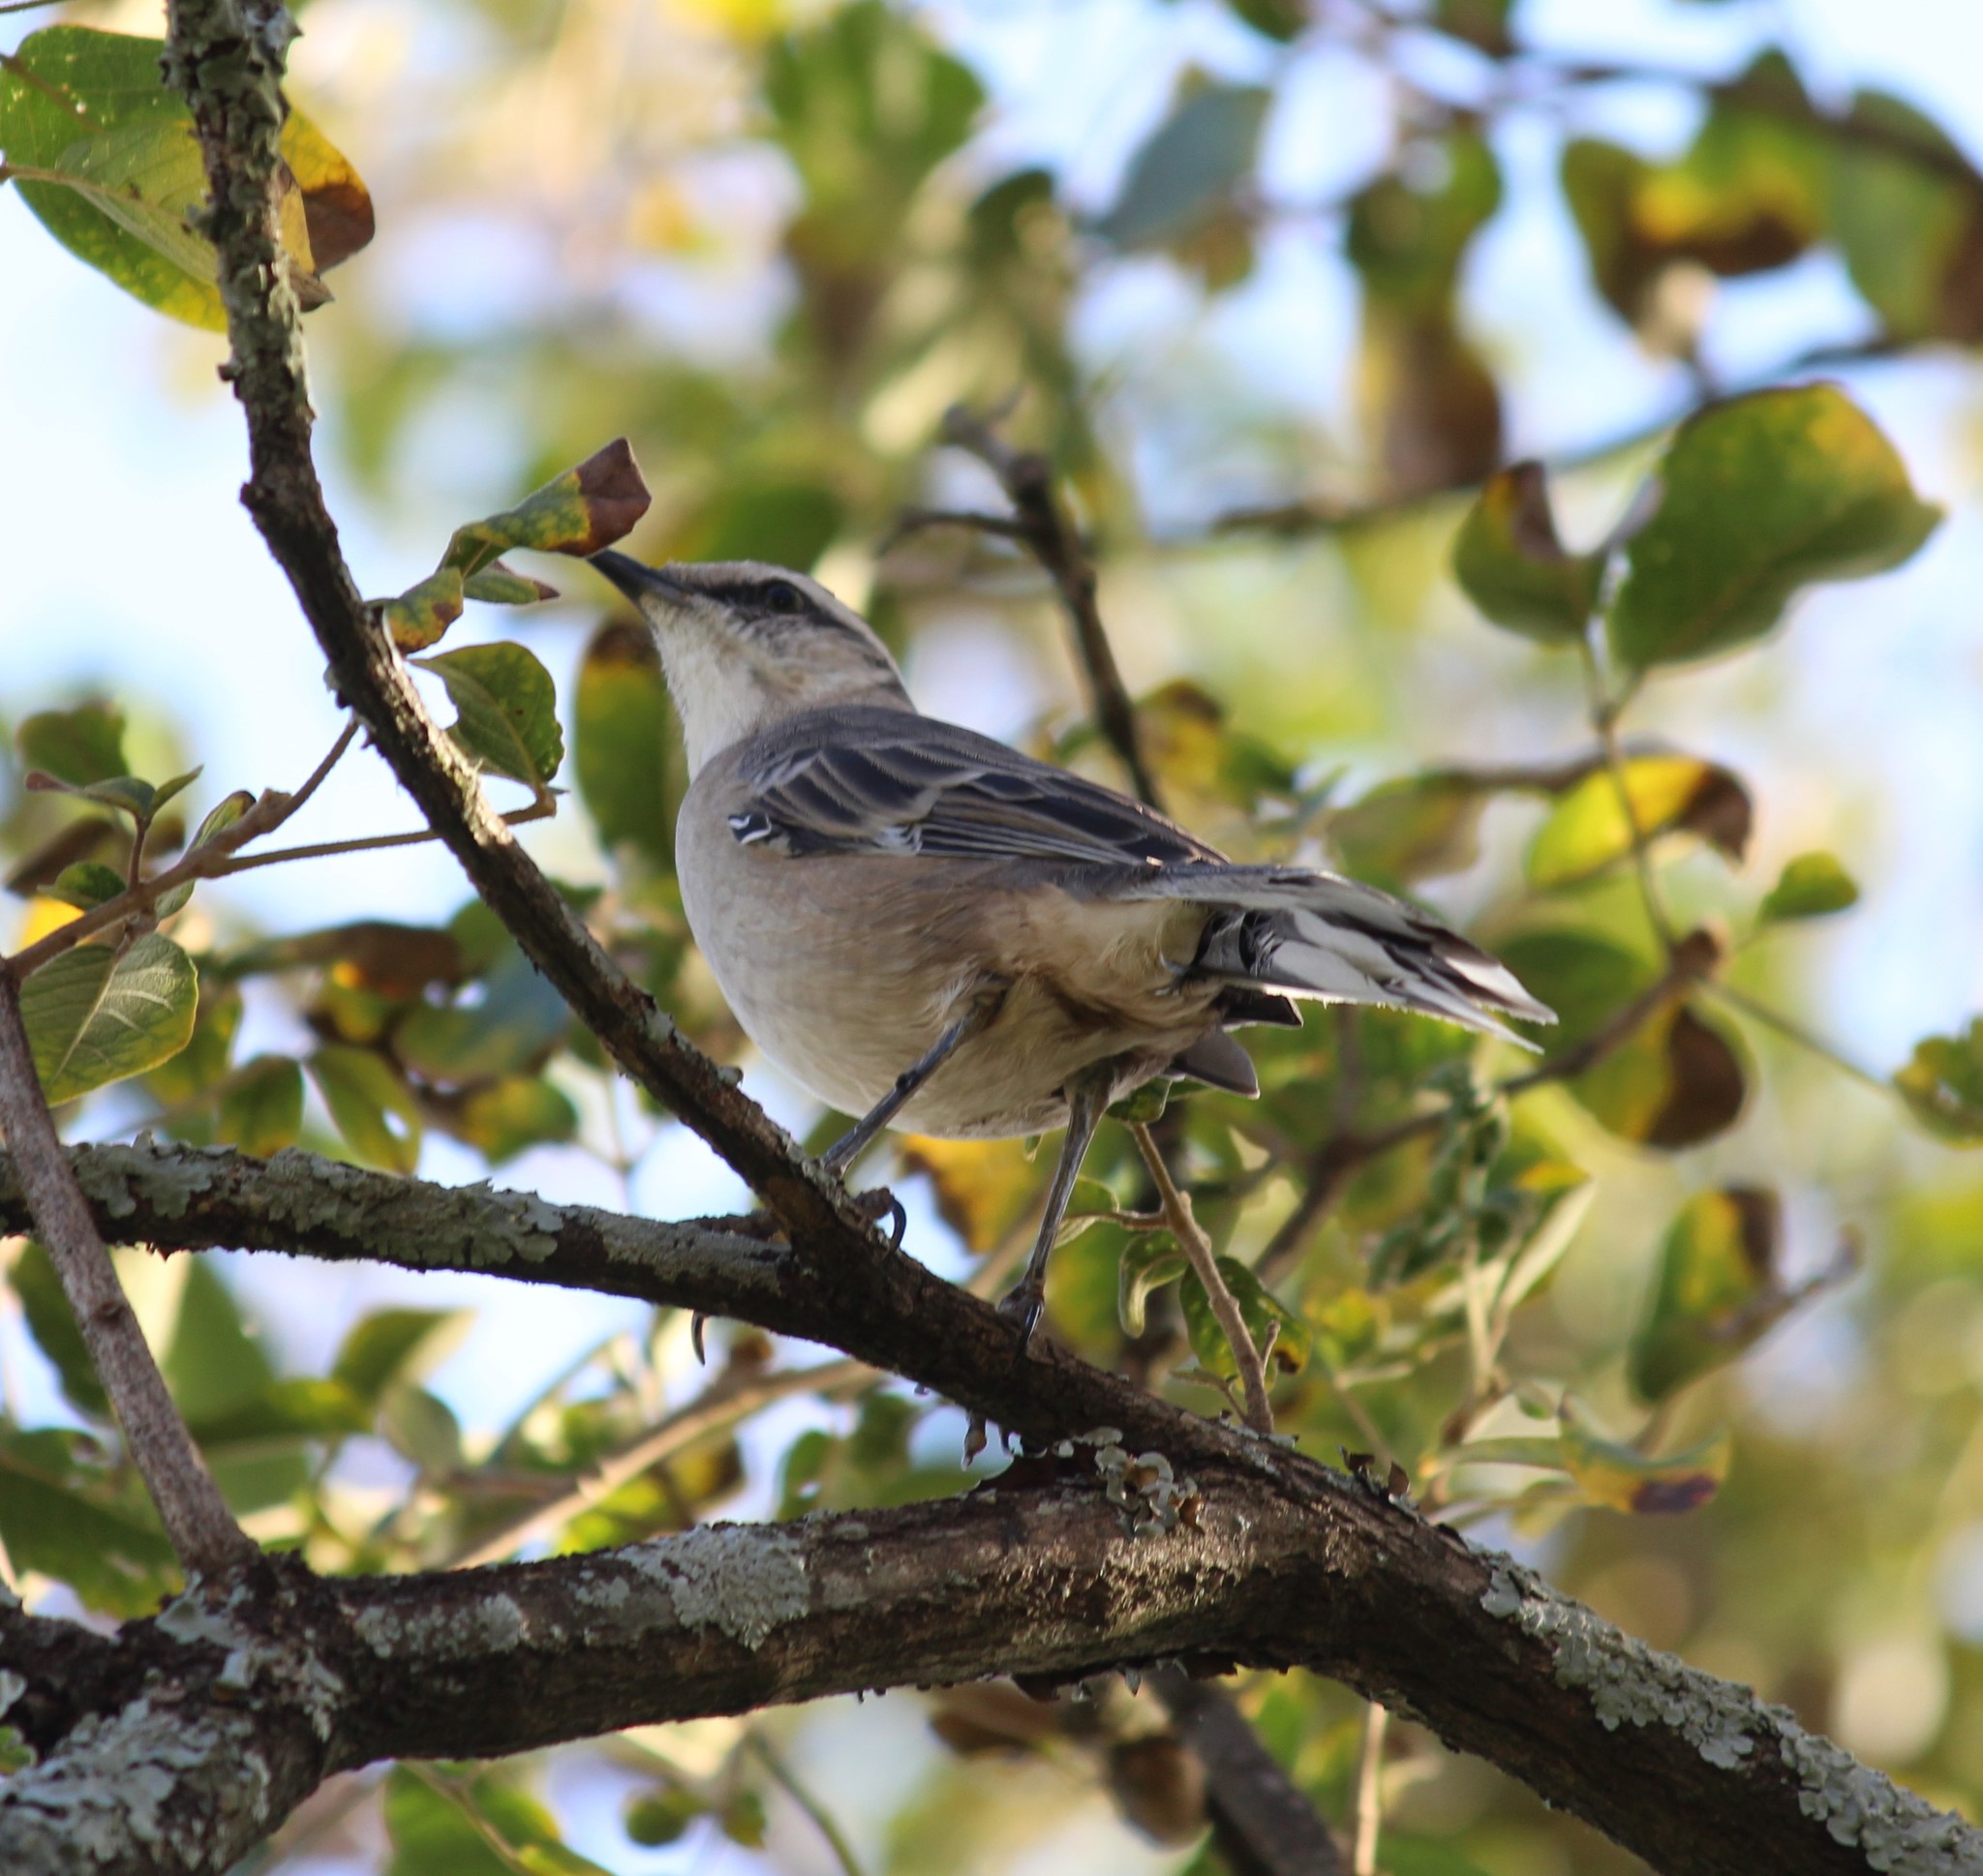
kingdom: Animalia
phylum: Chordata
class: Aves
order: Passeriformes
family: Mimidae
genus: Mimus
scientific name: Mimus saturninus
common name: Chalk-browed mockingbird
